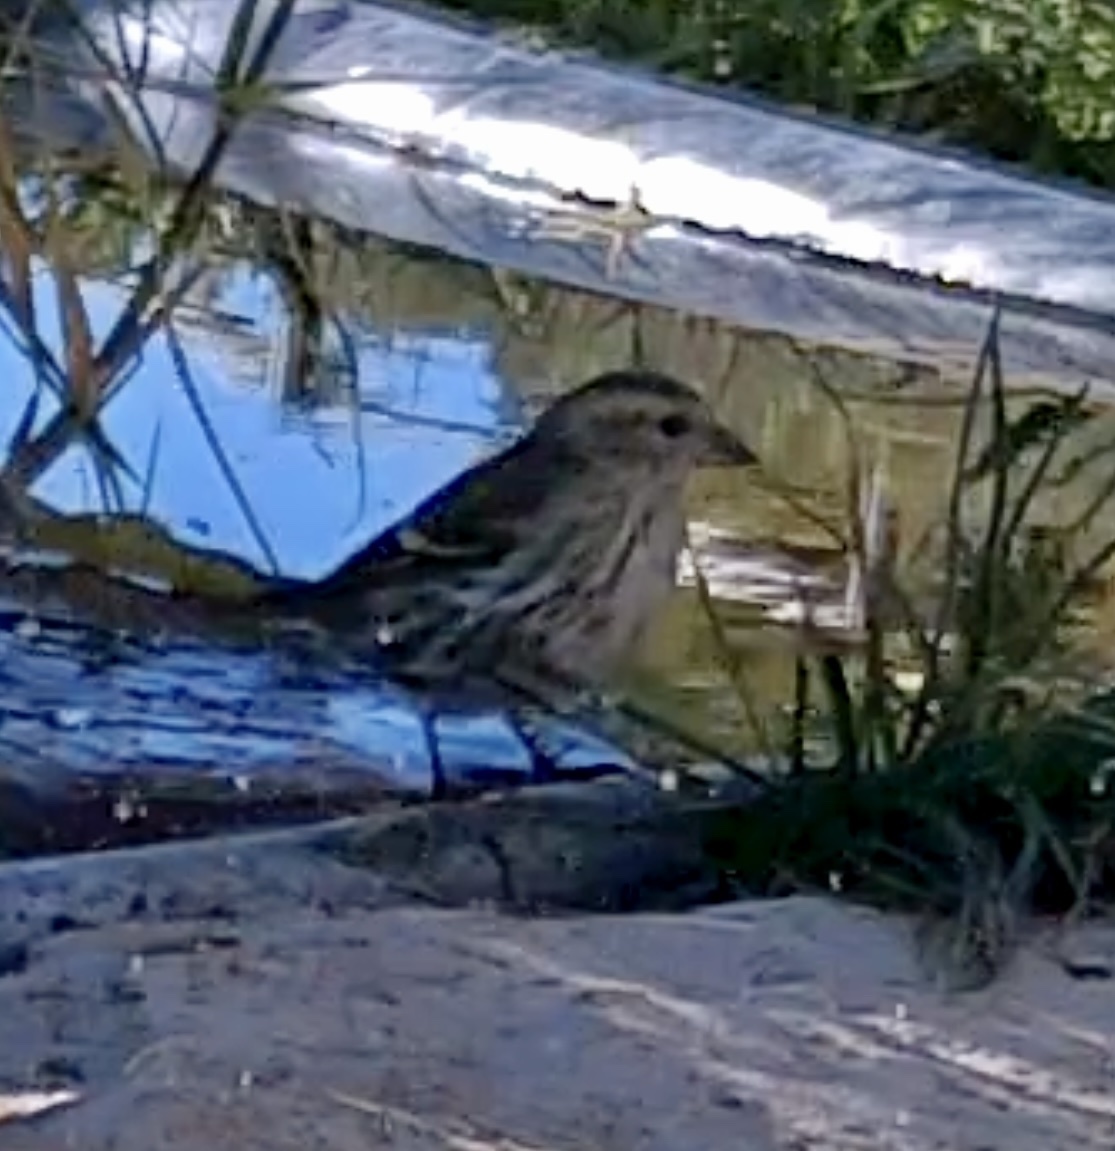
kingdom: Animalia
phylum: Chordata
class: Aves
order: Passeriformes
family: Fringillidae
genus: Spinus
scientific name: Spinus spinus
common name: Eurasian siskin
